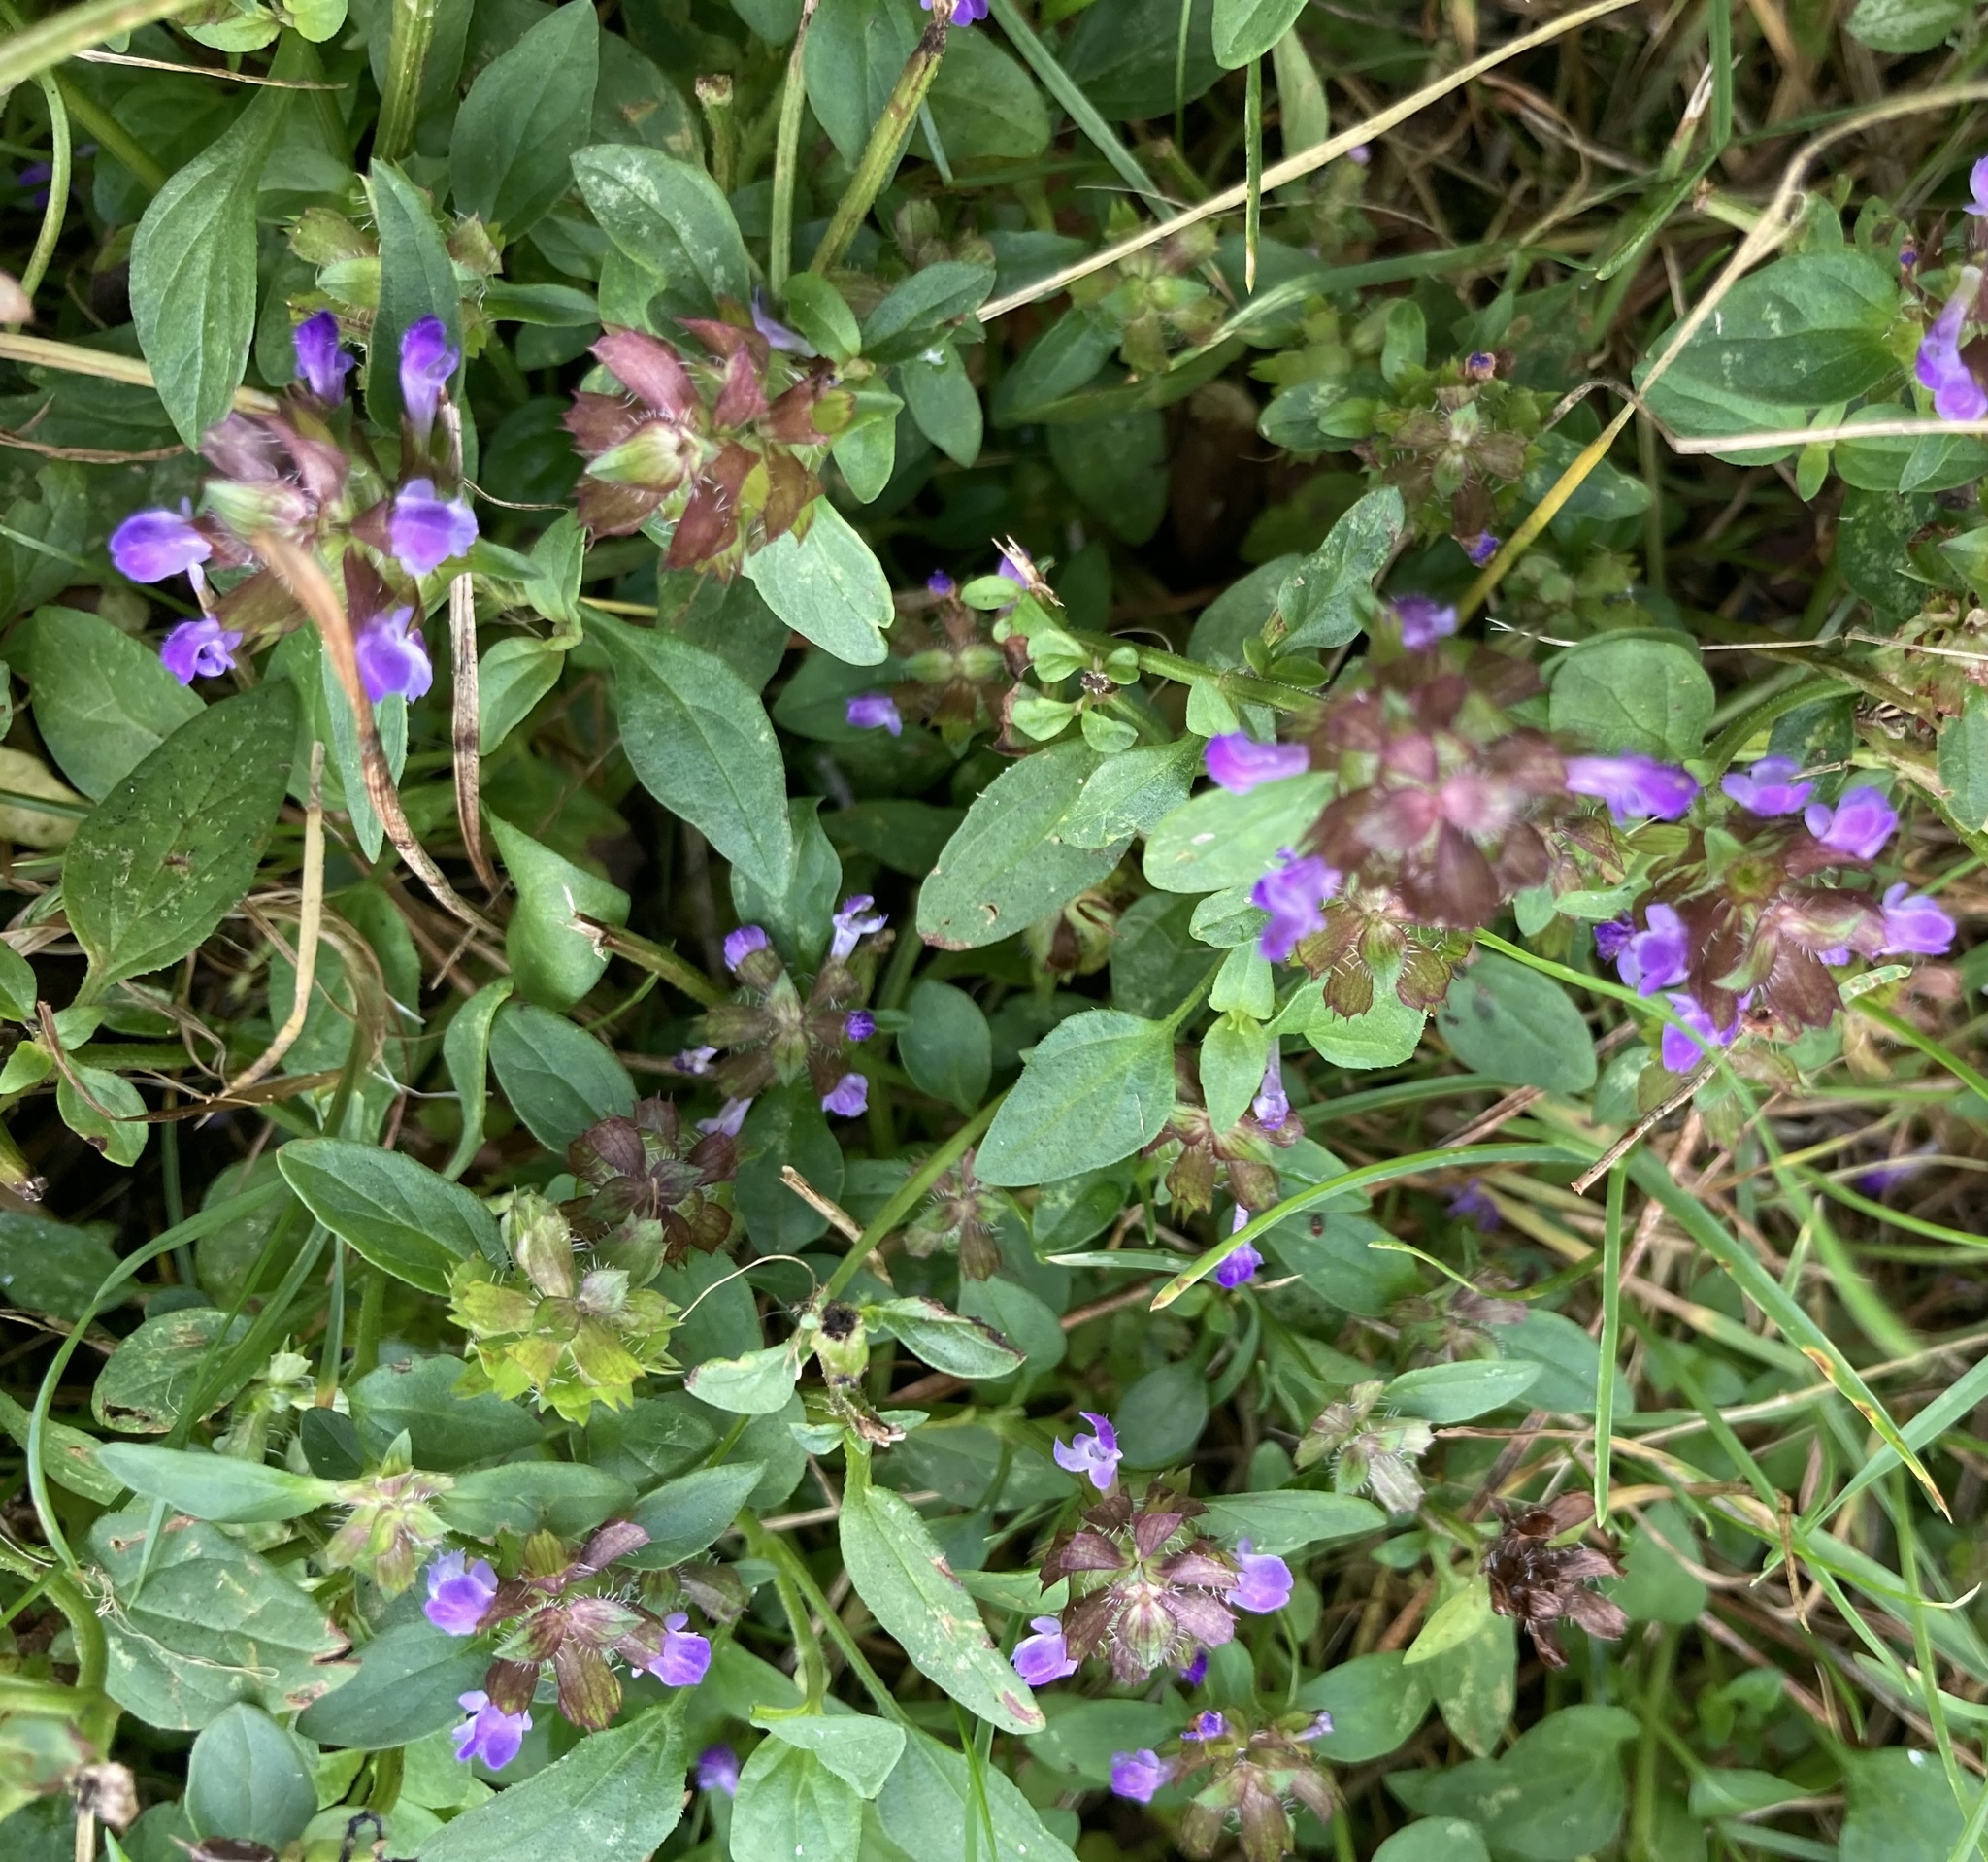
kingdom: Plantae
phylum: Tracheophyta
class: Magnoliopsida
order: Lamiales
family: Lamiaceae
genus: Prunella
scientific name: Prunella vulgaris
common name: Heal-all
